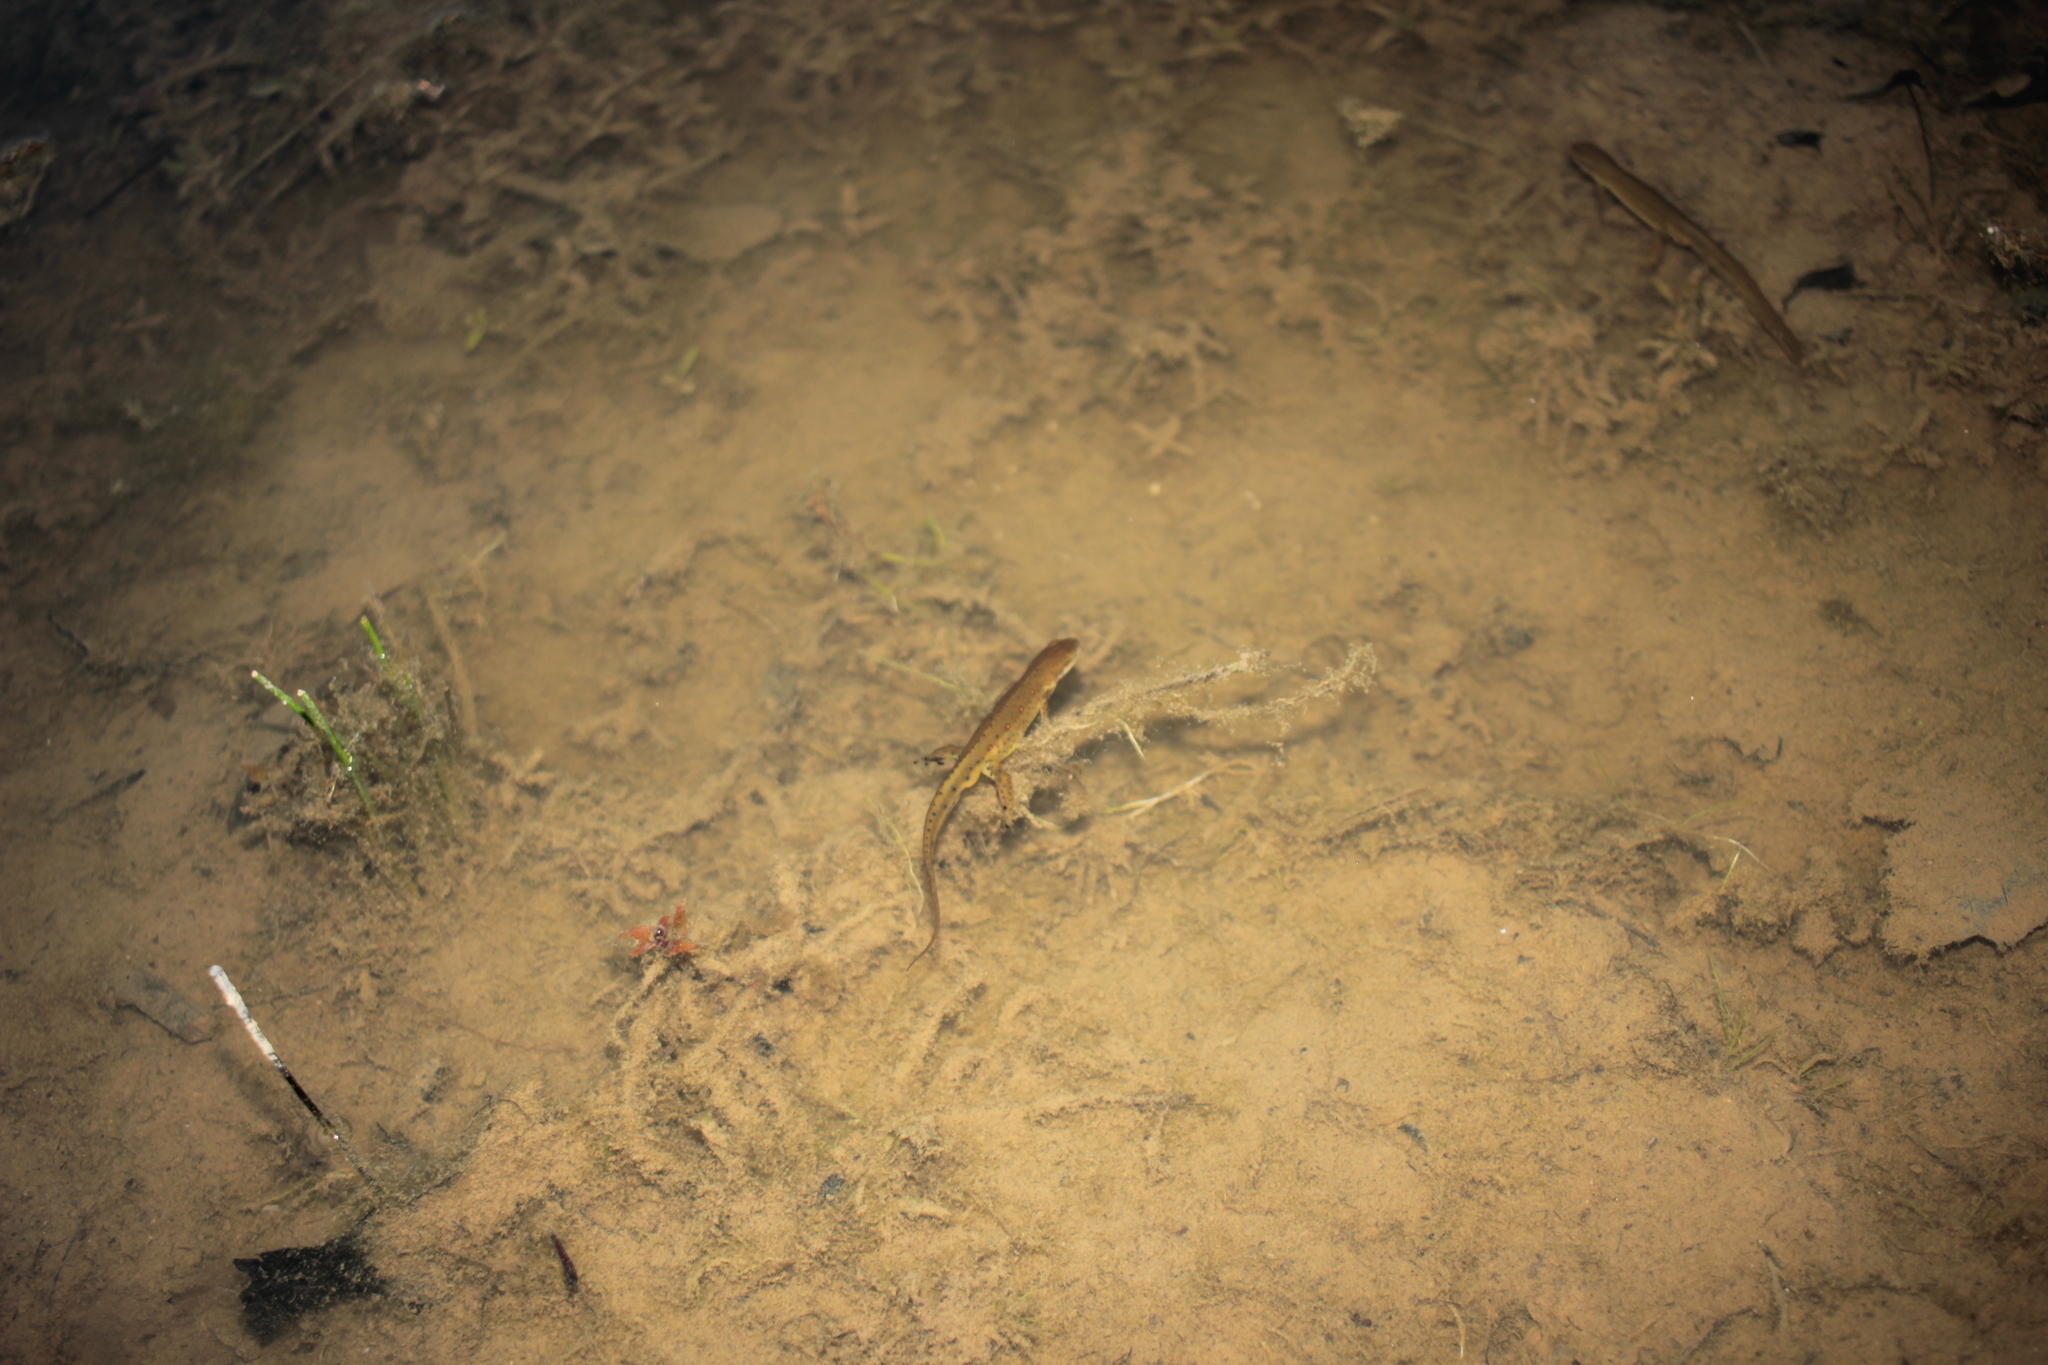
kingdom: Animalia
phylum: Chordata
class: Amphibia
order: Caudata
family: Salamandridae
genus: Notophthalmus
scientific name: Notophthalmus viridescens
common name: Eastern newt
